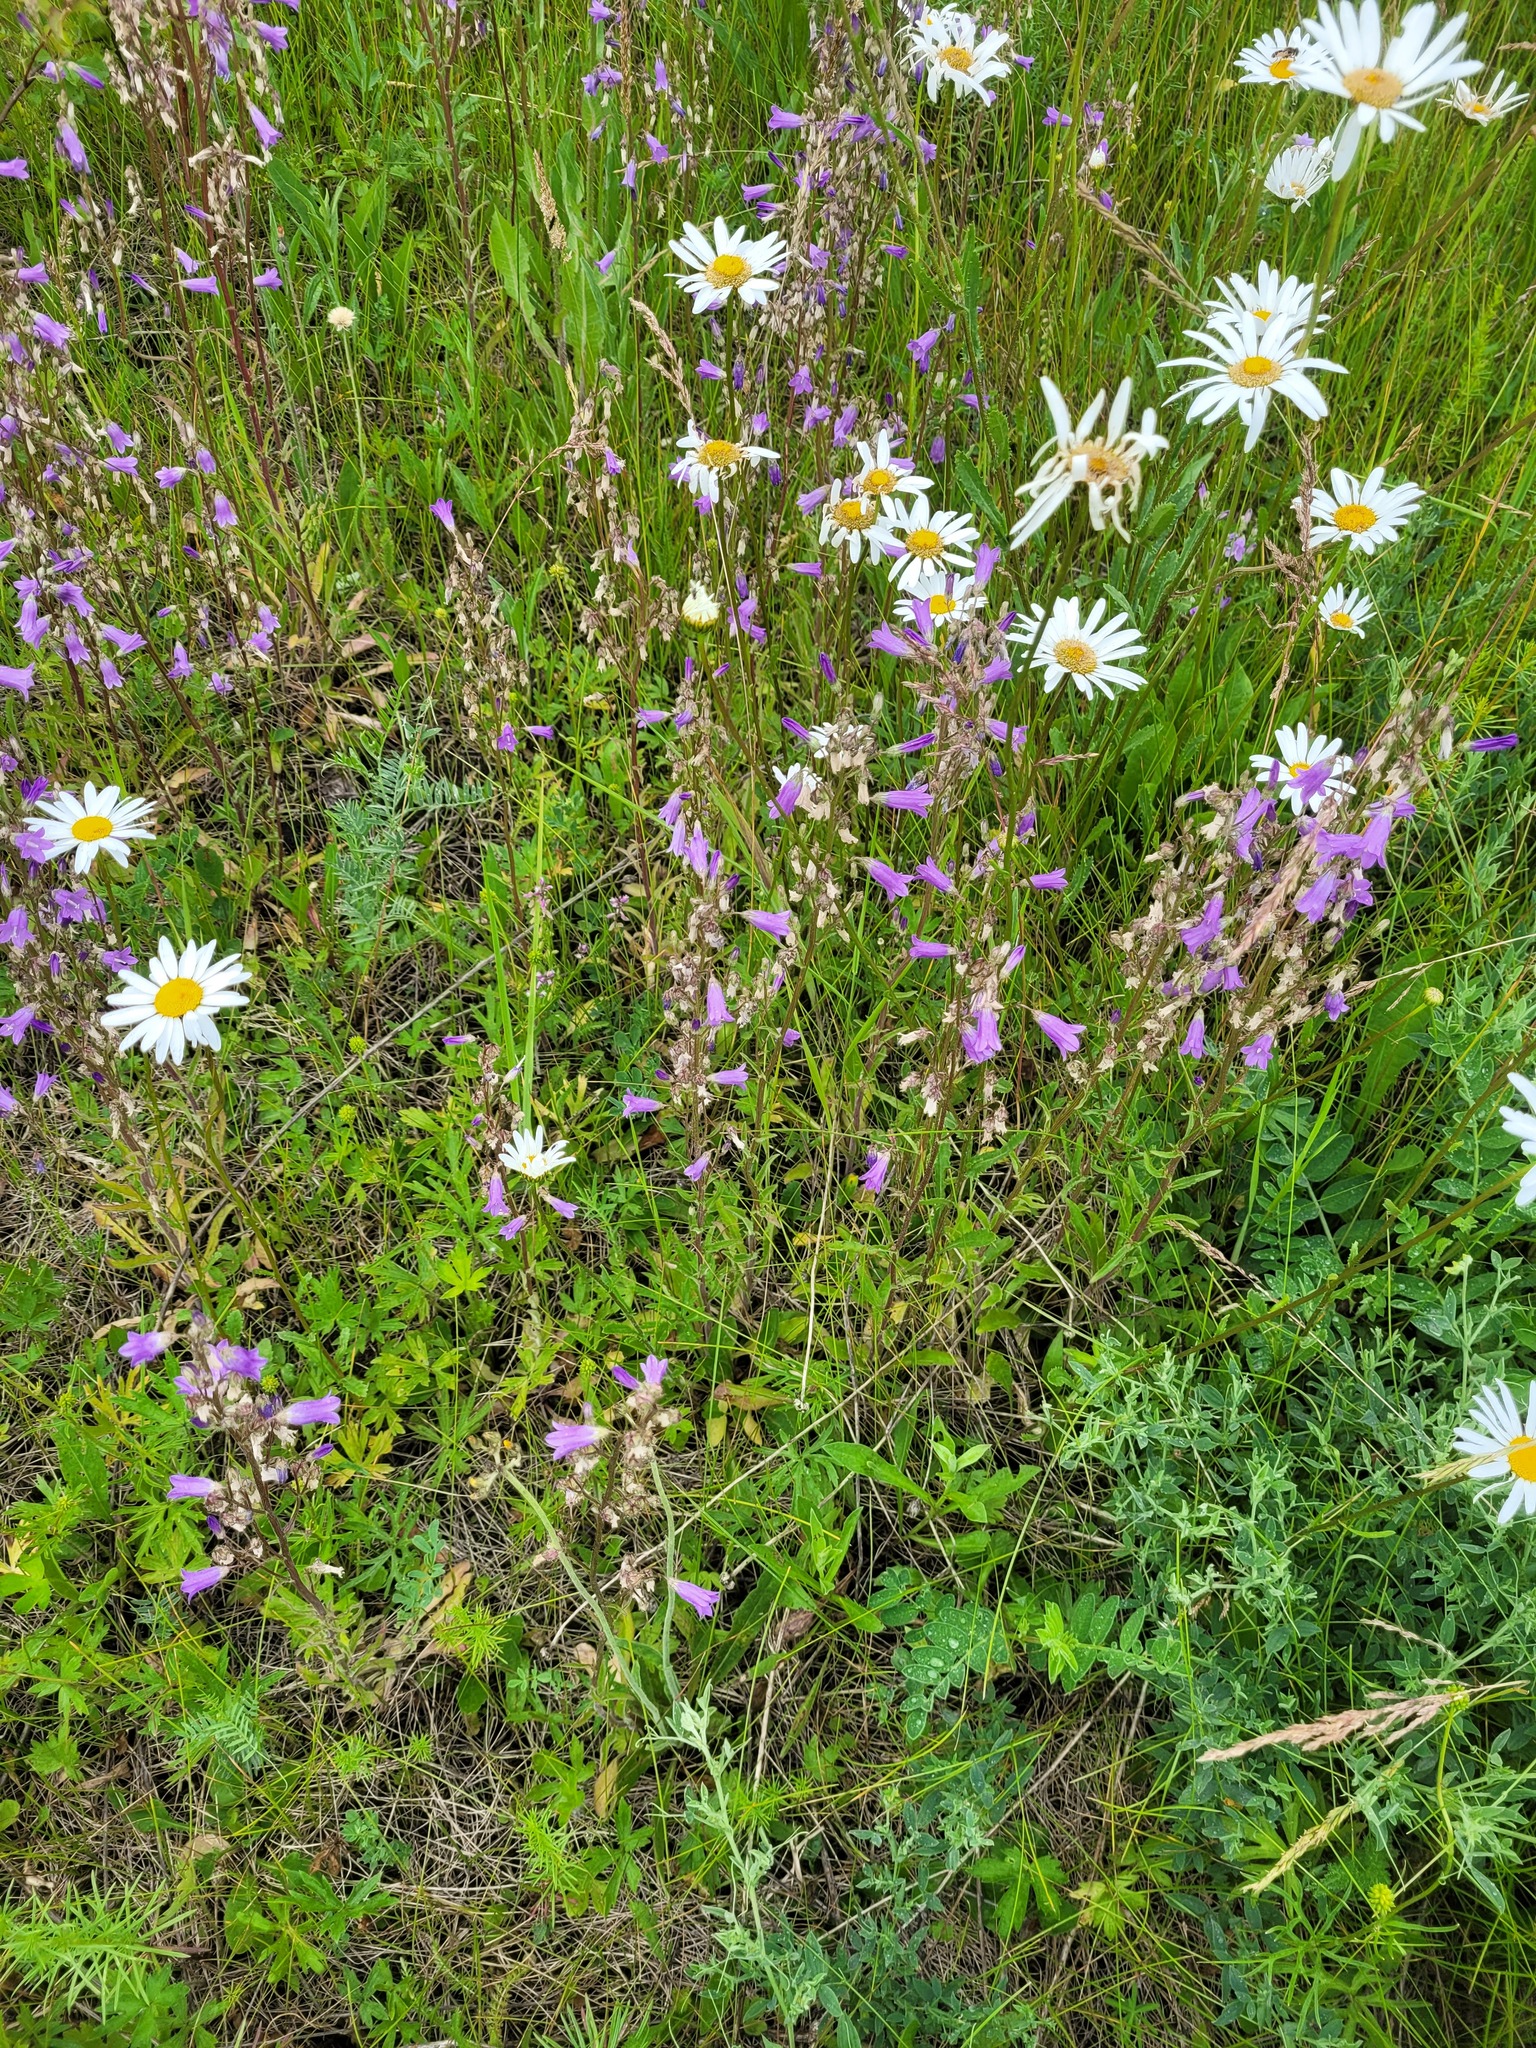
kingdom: Plantae
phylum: Tracheophyta
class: Magnoliopsida
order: Asterales
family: Campanulaceae
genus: Campanula
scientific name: Campanula sibirica
